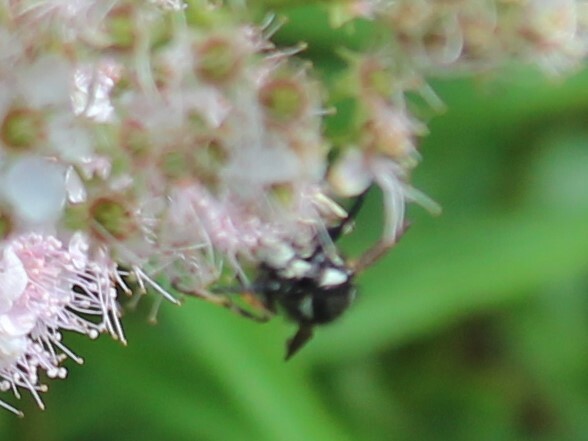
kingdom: Animalia
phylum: Arthropoda
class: Insecta
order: Hymenoptera
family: Vespidae
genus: Vespula
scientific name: Vespula consobrina
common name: Blackjacket
